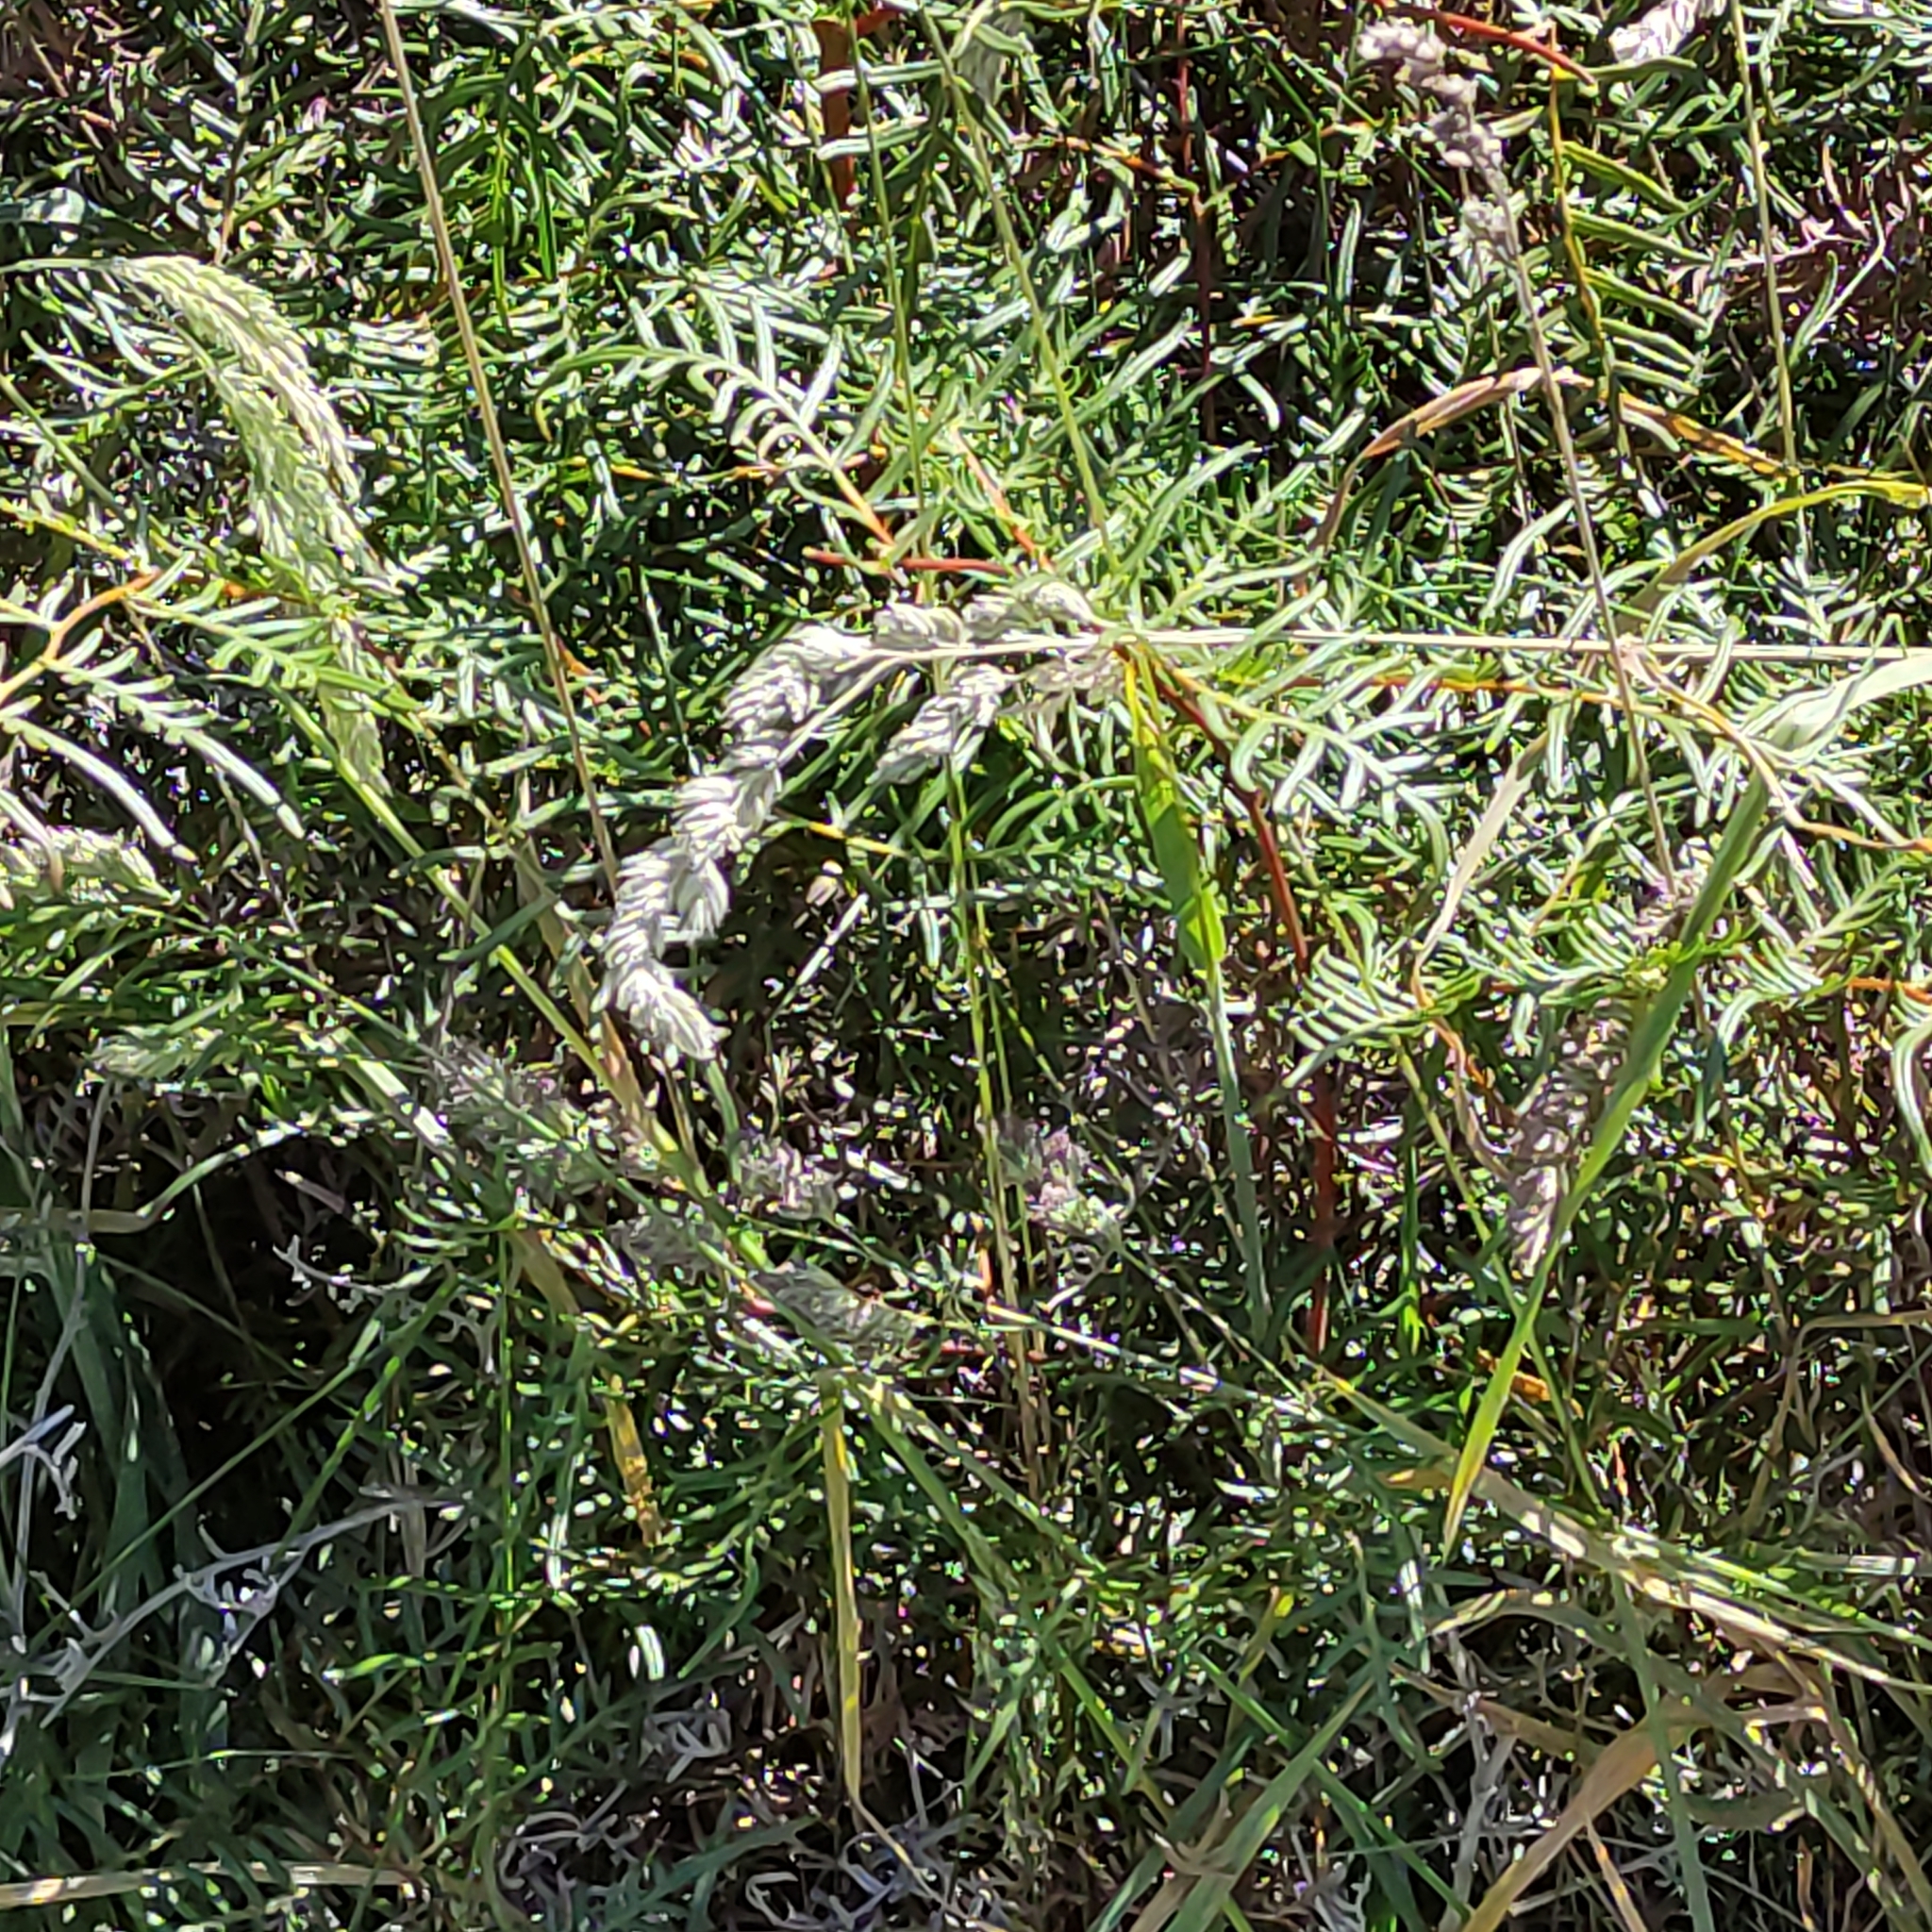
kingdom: Plantae
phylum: Tracheophyta
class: Polypodiopsida
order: Polypodiales
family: Dennstaedtiaceae
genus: Pteridium
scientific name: Pteridium esculentum
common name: Bracken fern
